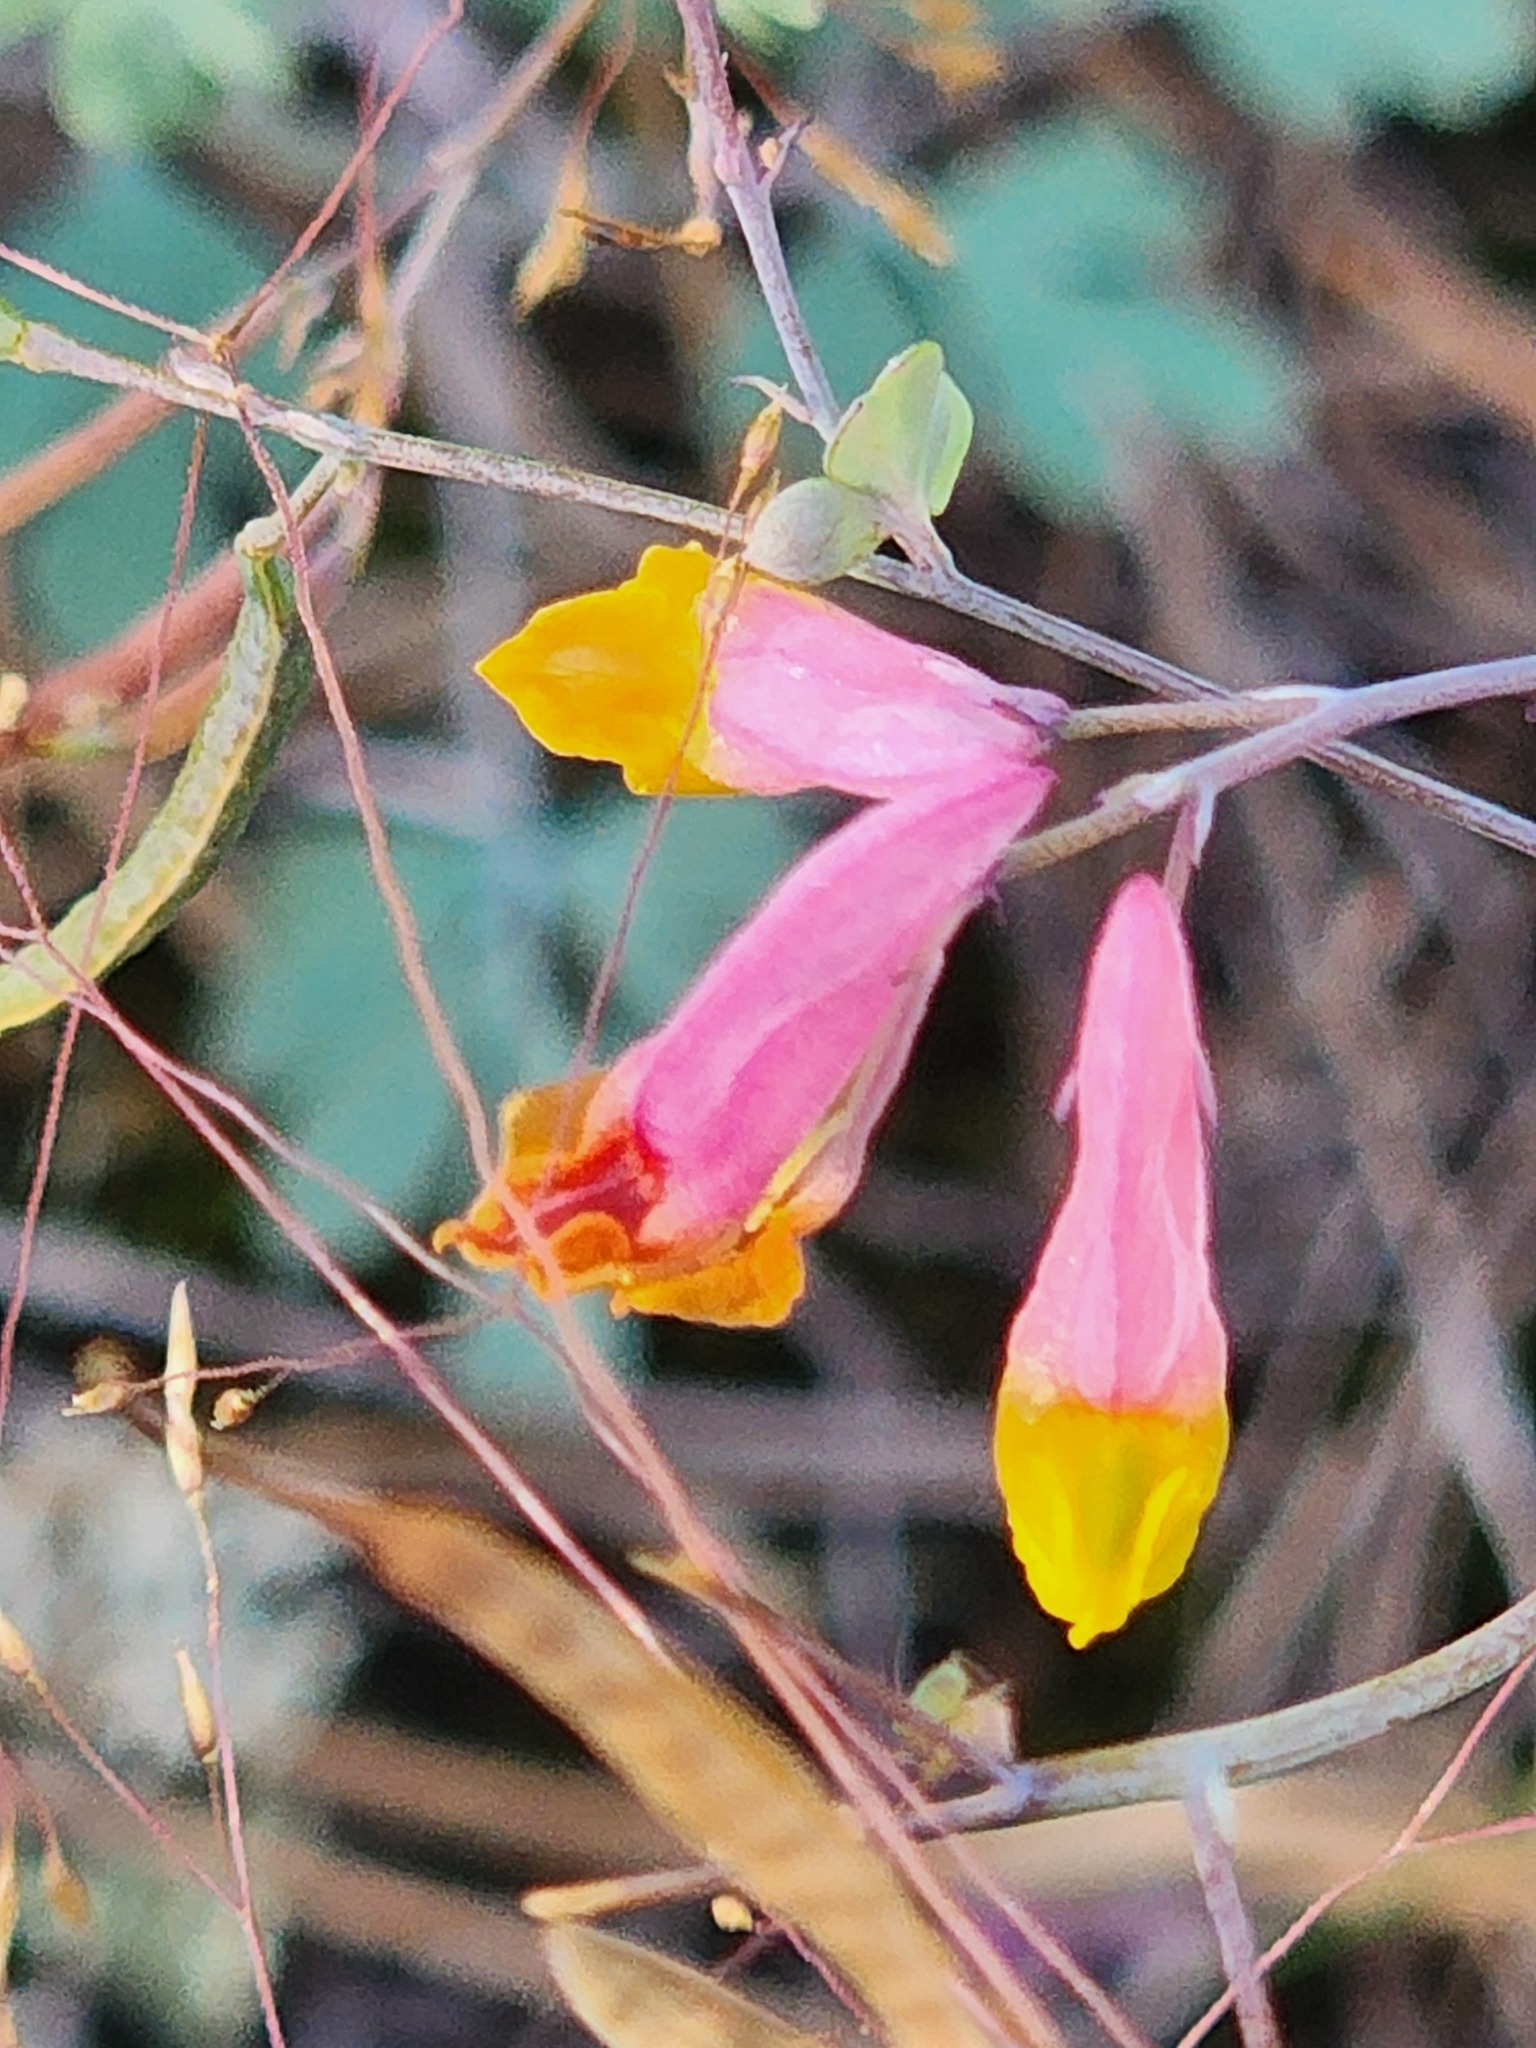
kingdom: Plantae
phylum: Tracheophyta
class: Magnoliopsida
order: Ranunculales
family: Papaveraceae
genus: Capnoides
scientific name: Capnoides sempervirens
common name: Rock harlequin
